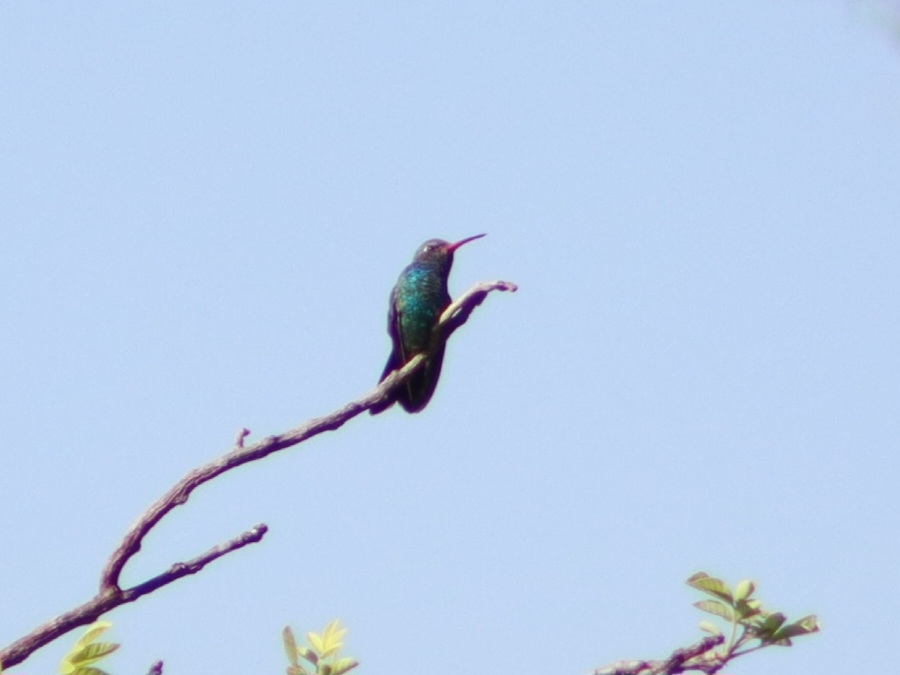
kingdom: Animalia
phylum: Chordata
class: Aves
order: Apodiformes
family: Trochilidae
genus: Cynanthus
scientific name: Cynanthus latirostris
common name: Broad-billed hummingbird
